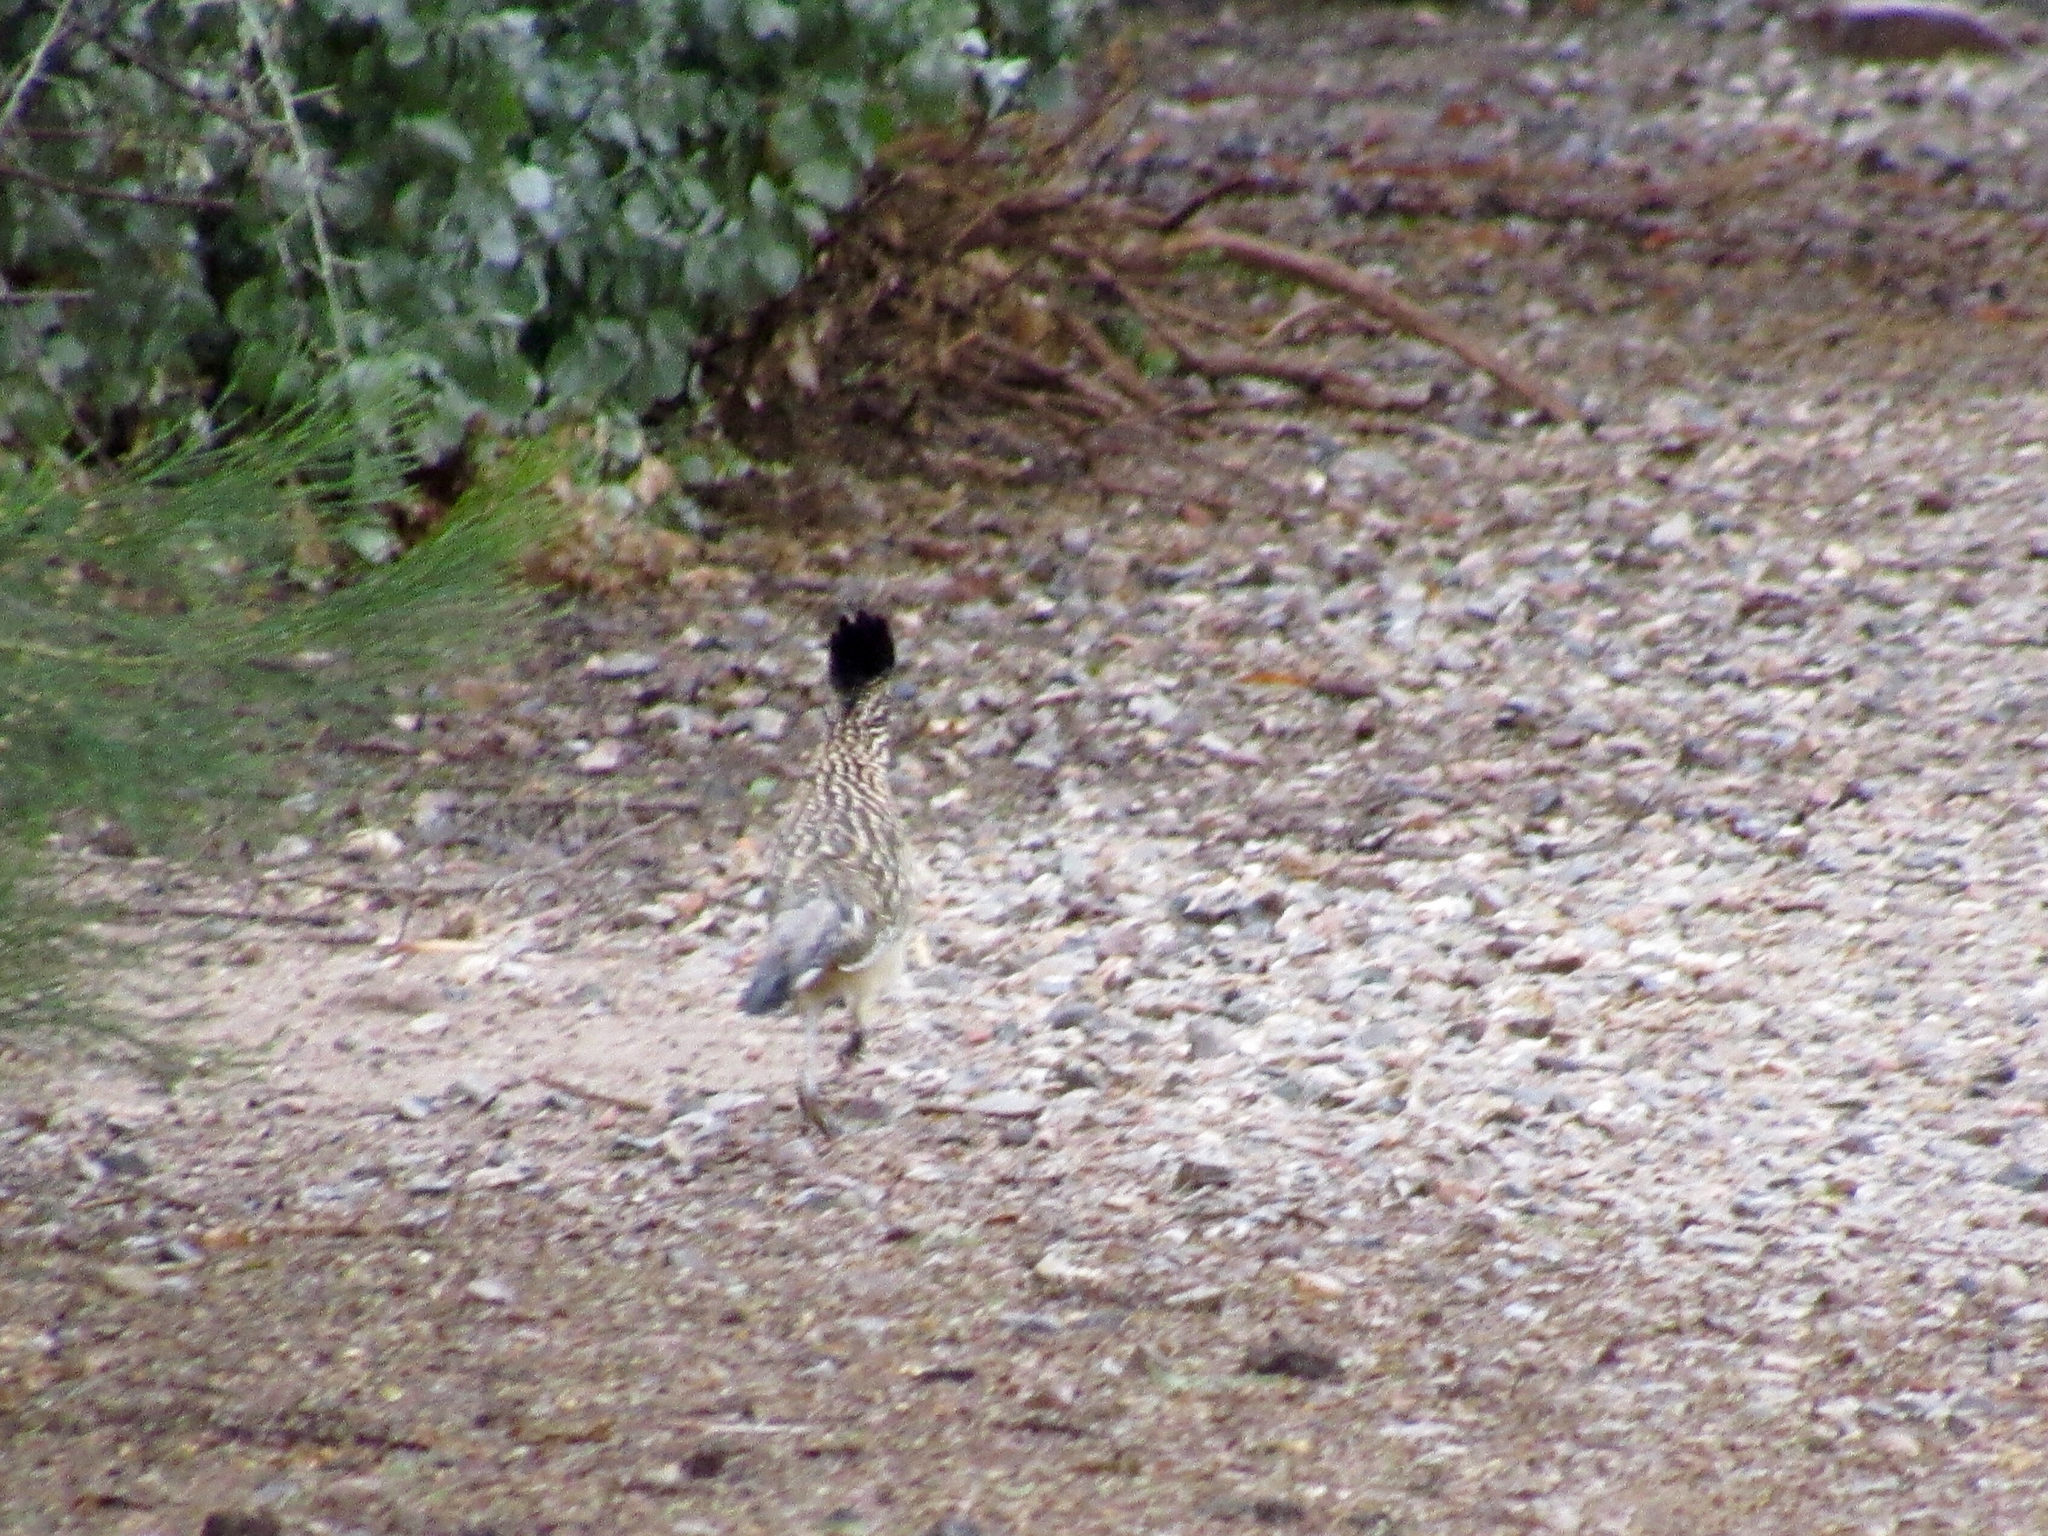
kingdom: Animalia
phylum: Chordata
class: Aves
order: Cuculiformes
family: Cuculidae
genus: Geococcyx
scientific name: Geococcyx californianus
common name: Greater roadrunner
